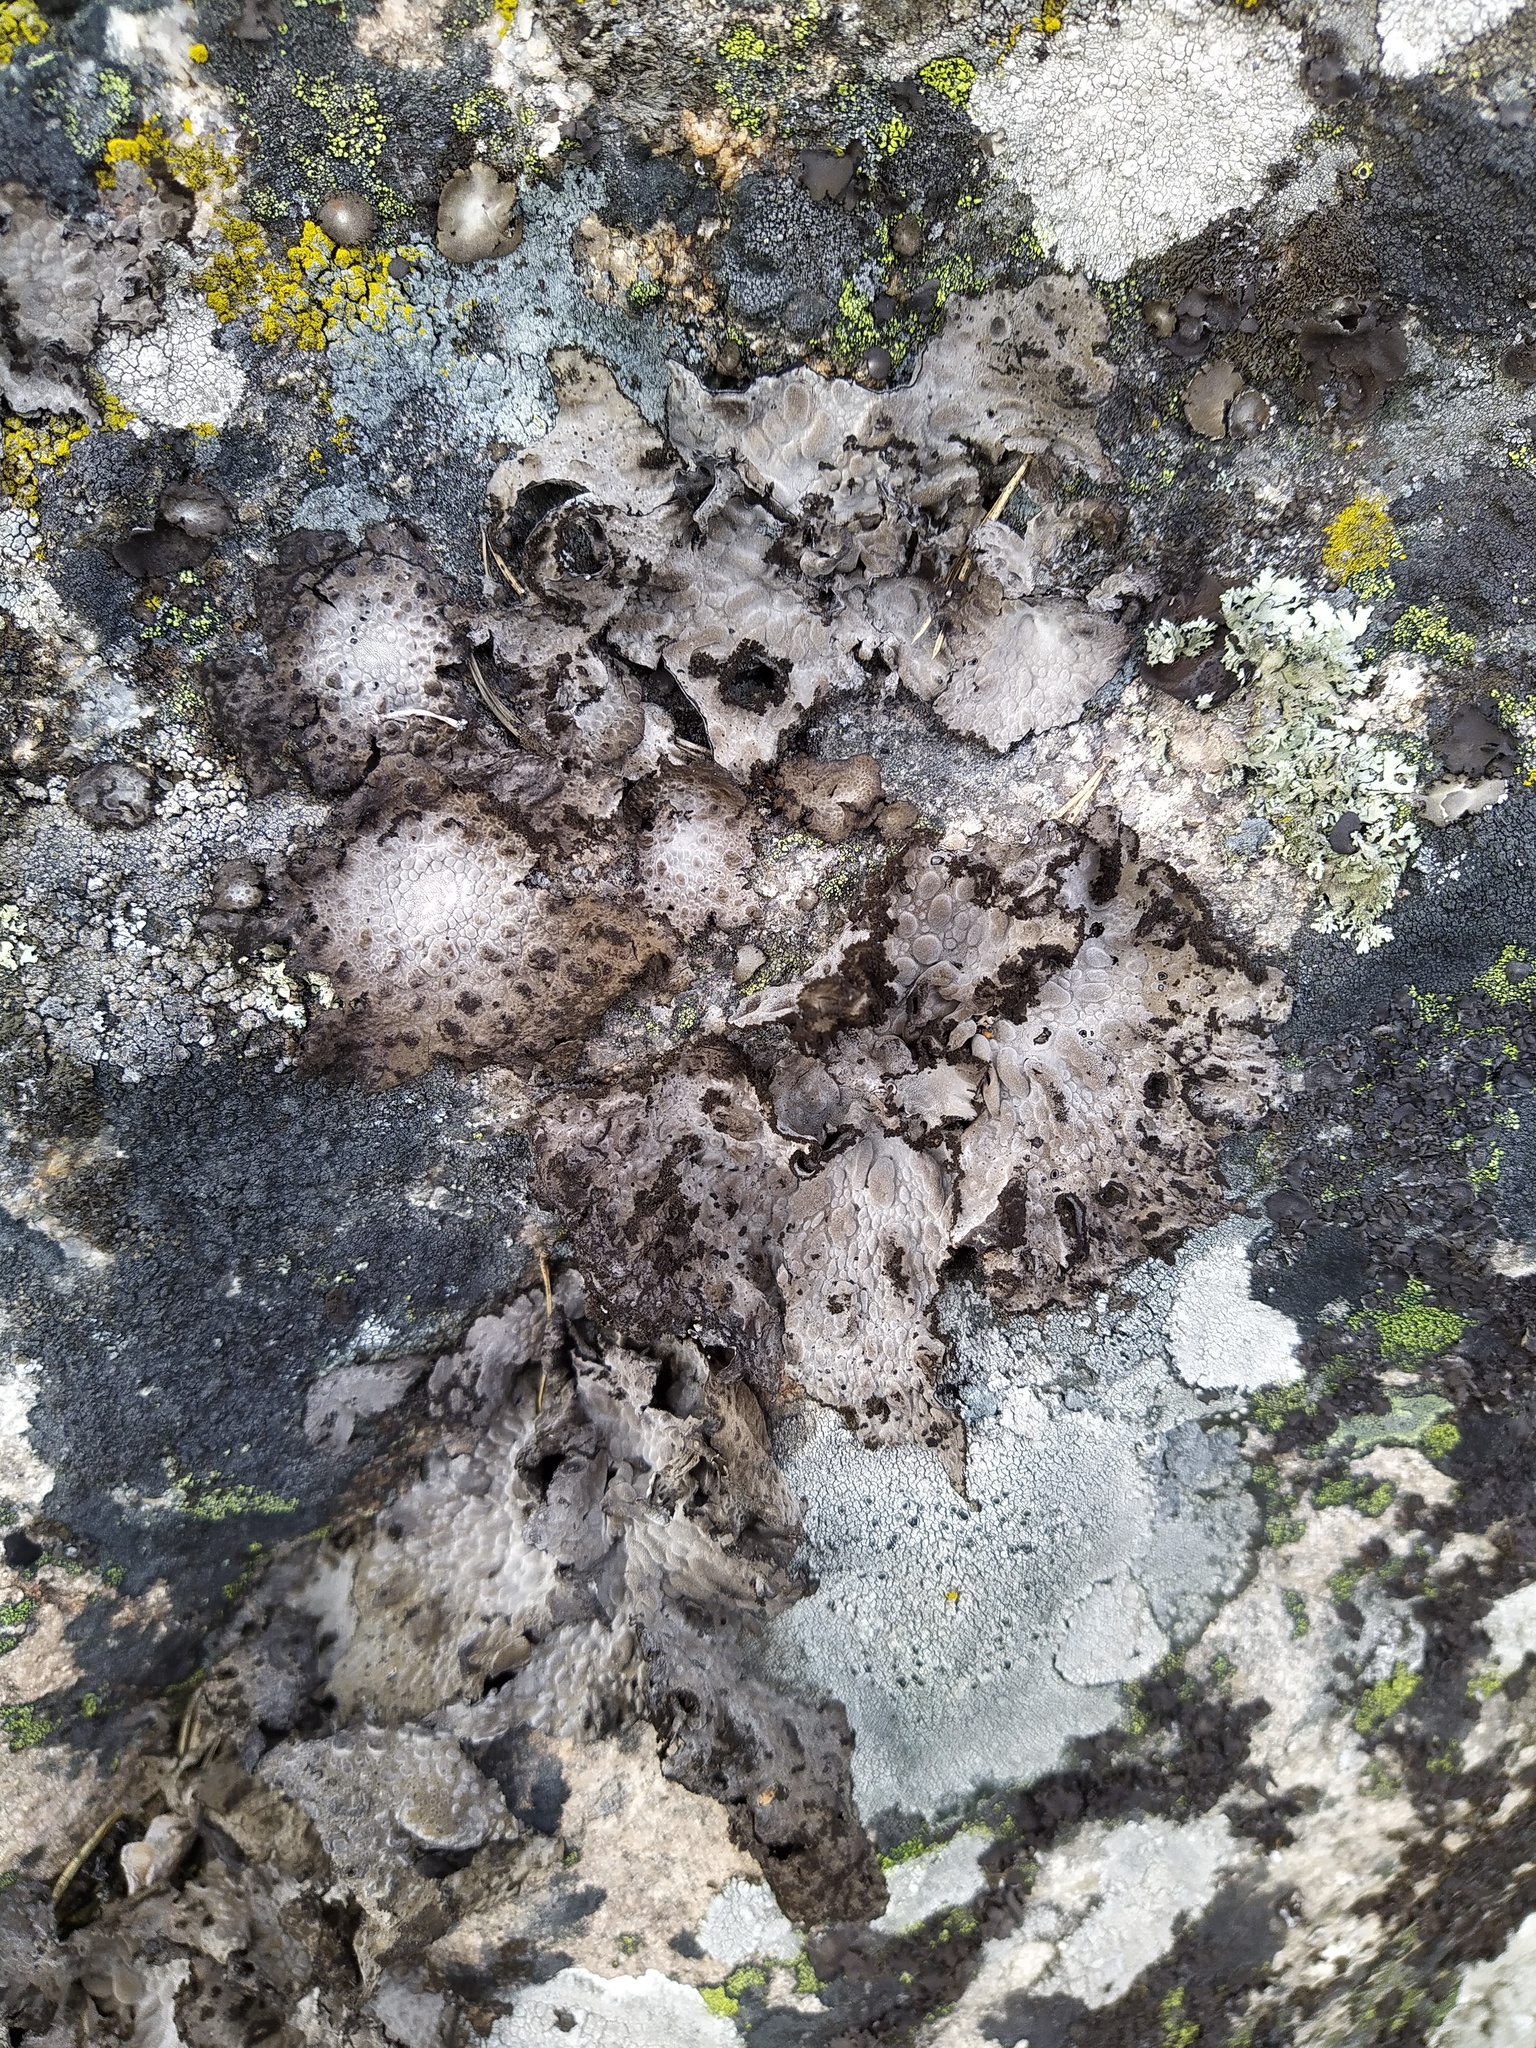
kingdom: Fungi
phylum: Ascomycota
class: Lecanoromycetes
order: Umbilicariales
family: Umbilicariaceae
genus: Lasallia
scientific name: Lasallia pustulata
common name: Blistered toadskin lichen
